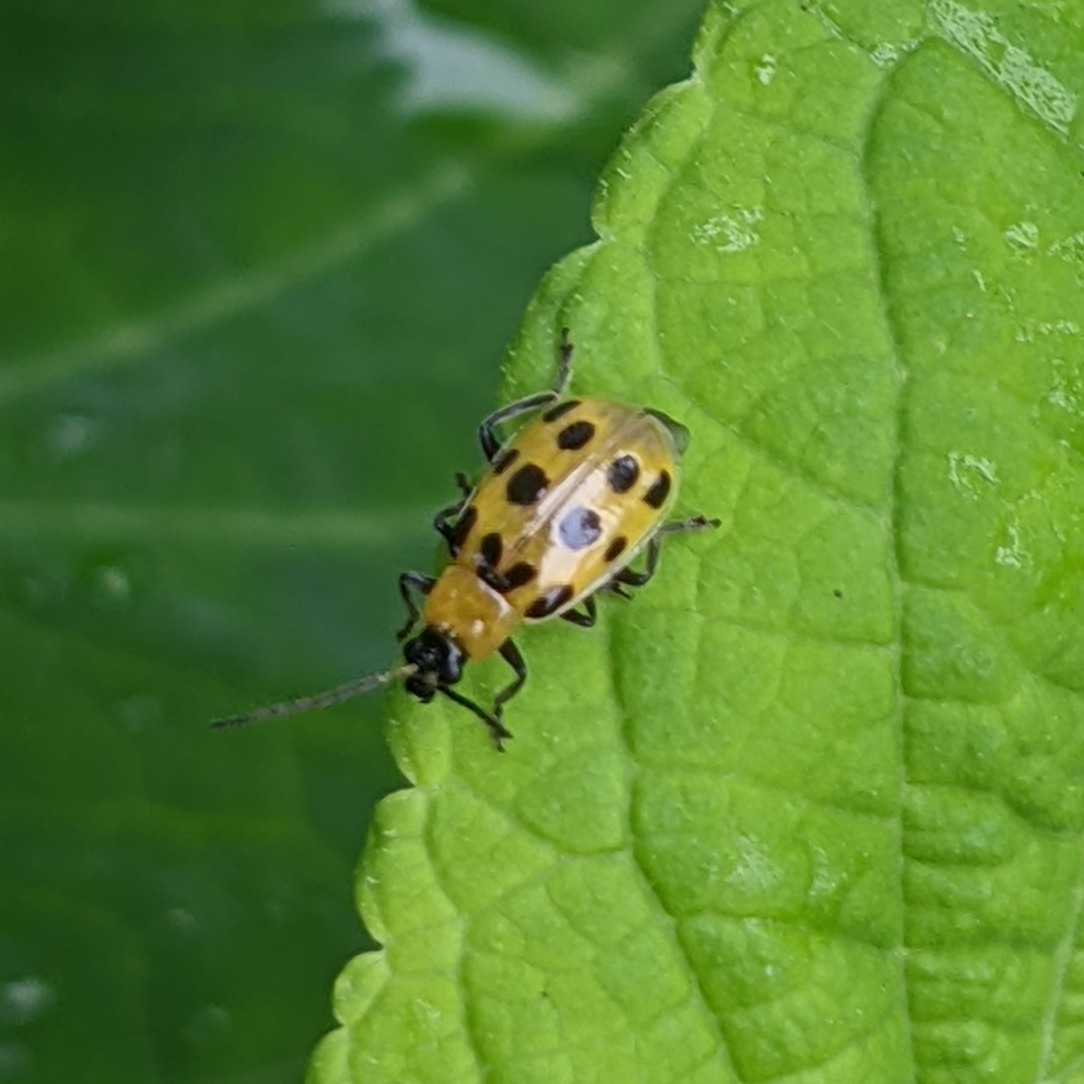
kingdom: Animalia
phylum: Arthropoda
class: Insecta
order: Coleoptera
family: Chrysomelidae
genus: Diabrotica
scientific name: Diabrotica undecimpunctata
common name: Spotted cucumber beetle
